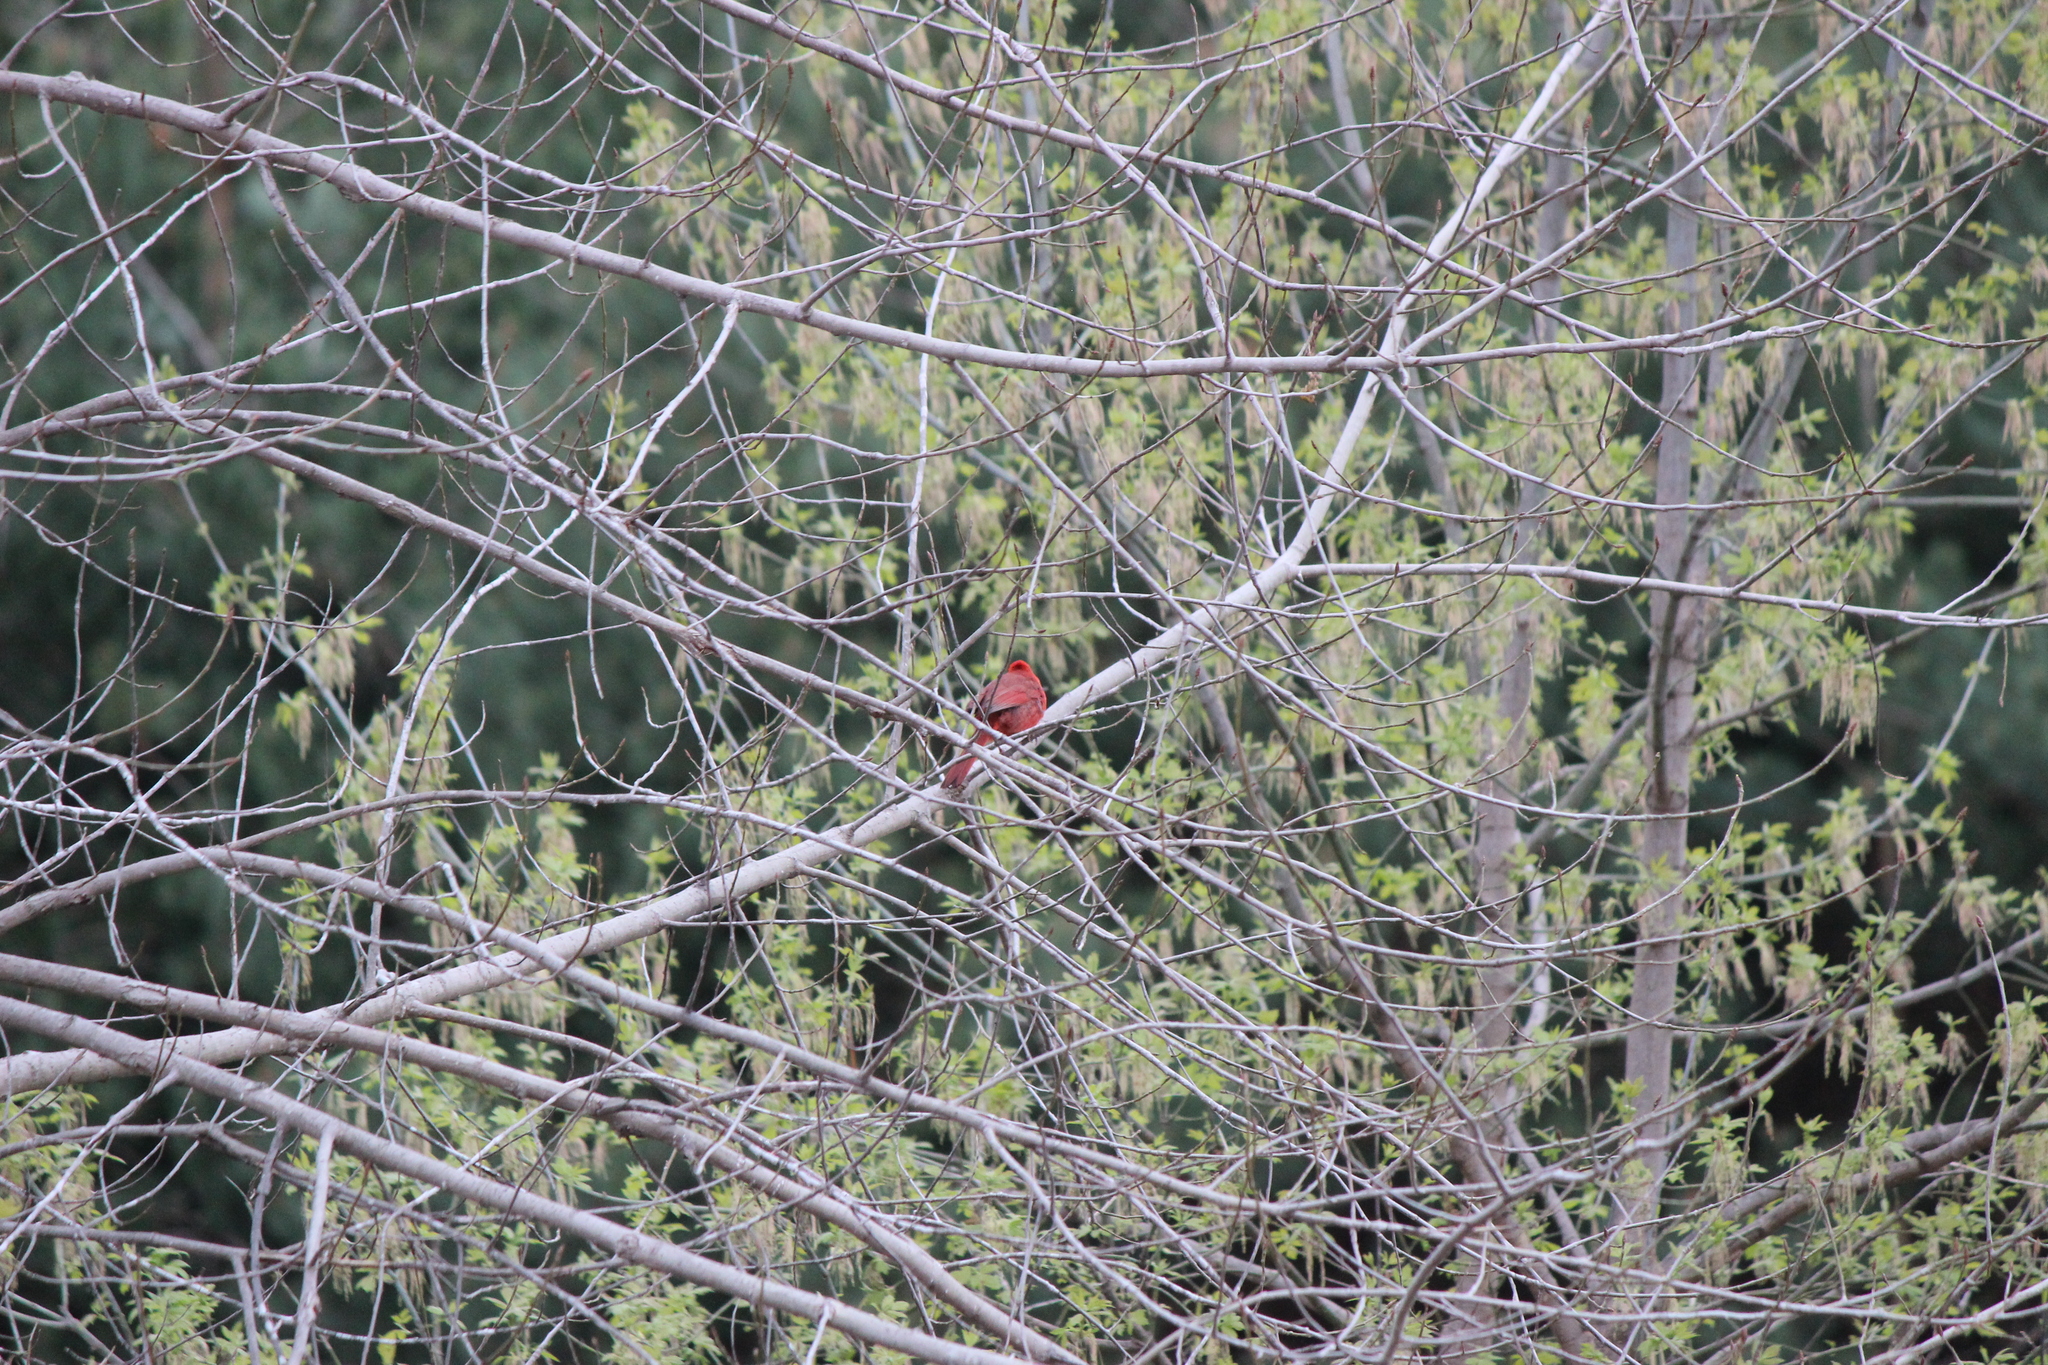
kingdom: Animalia
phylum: Chordata
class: Aves
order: Passeriformes
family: Cardinalidae
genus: Cardinalis
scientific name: Cardinalis cardinalis
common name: Northern cardinal
